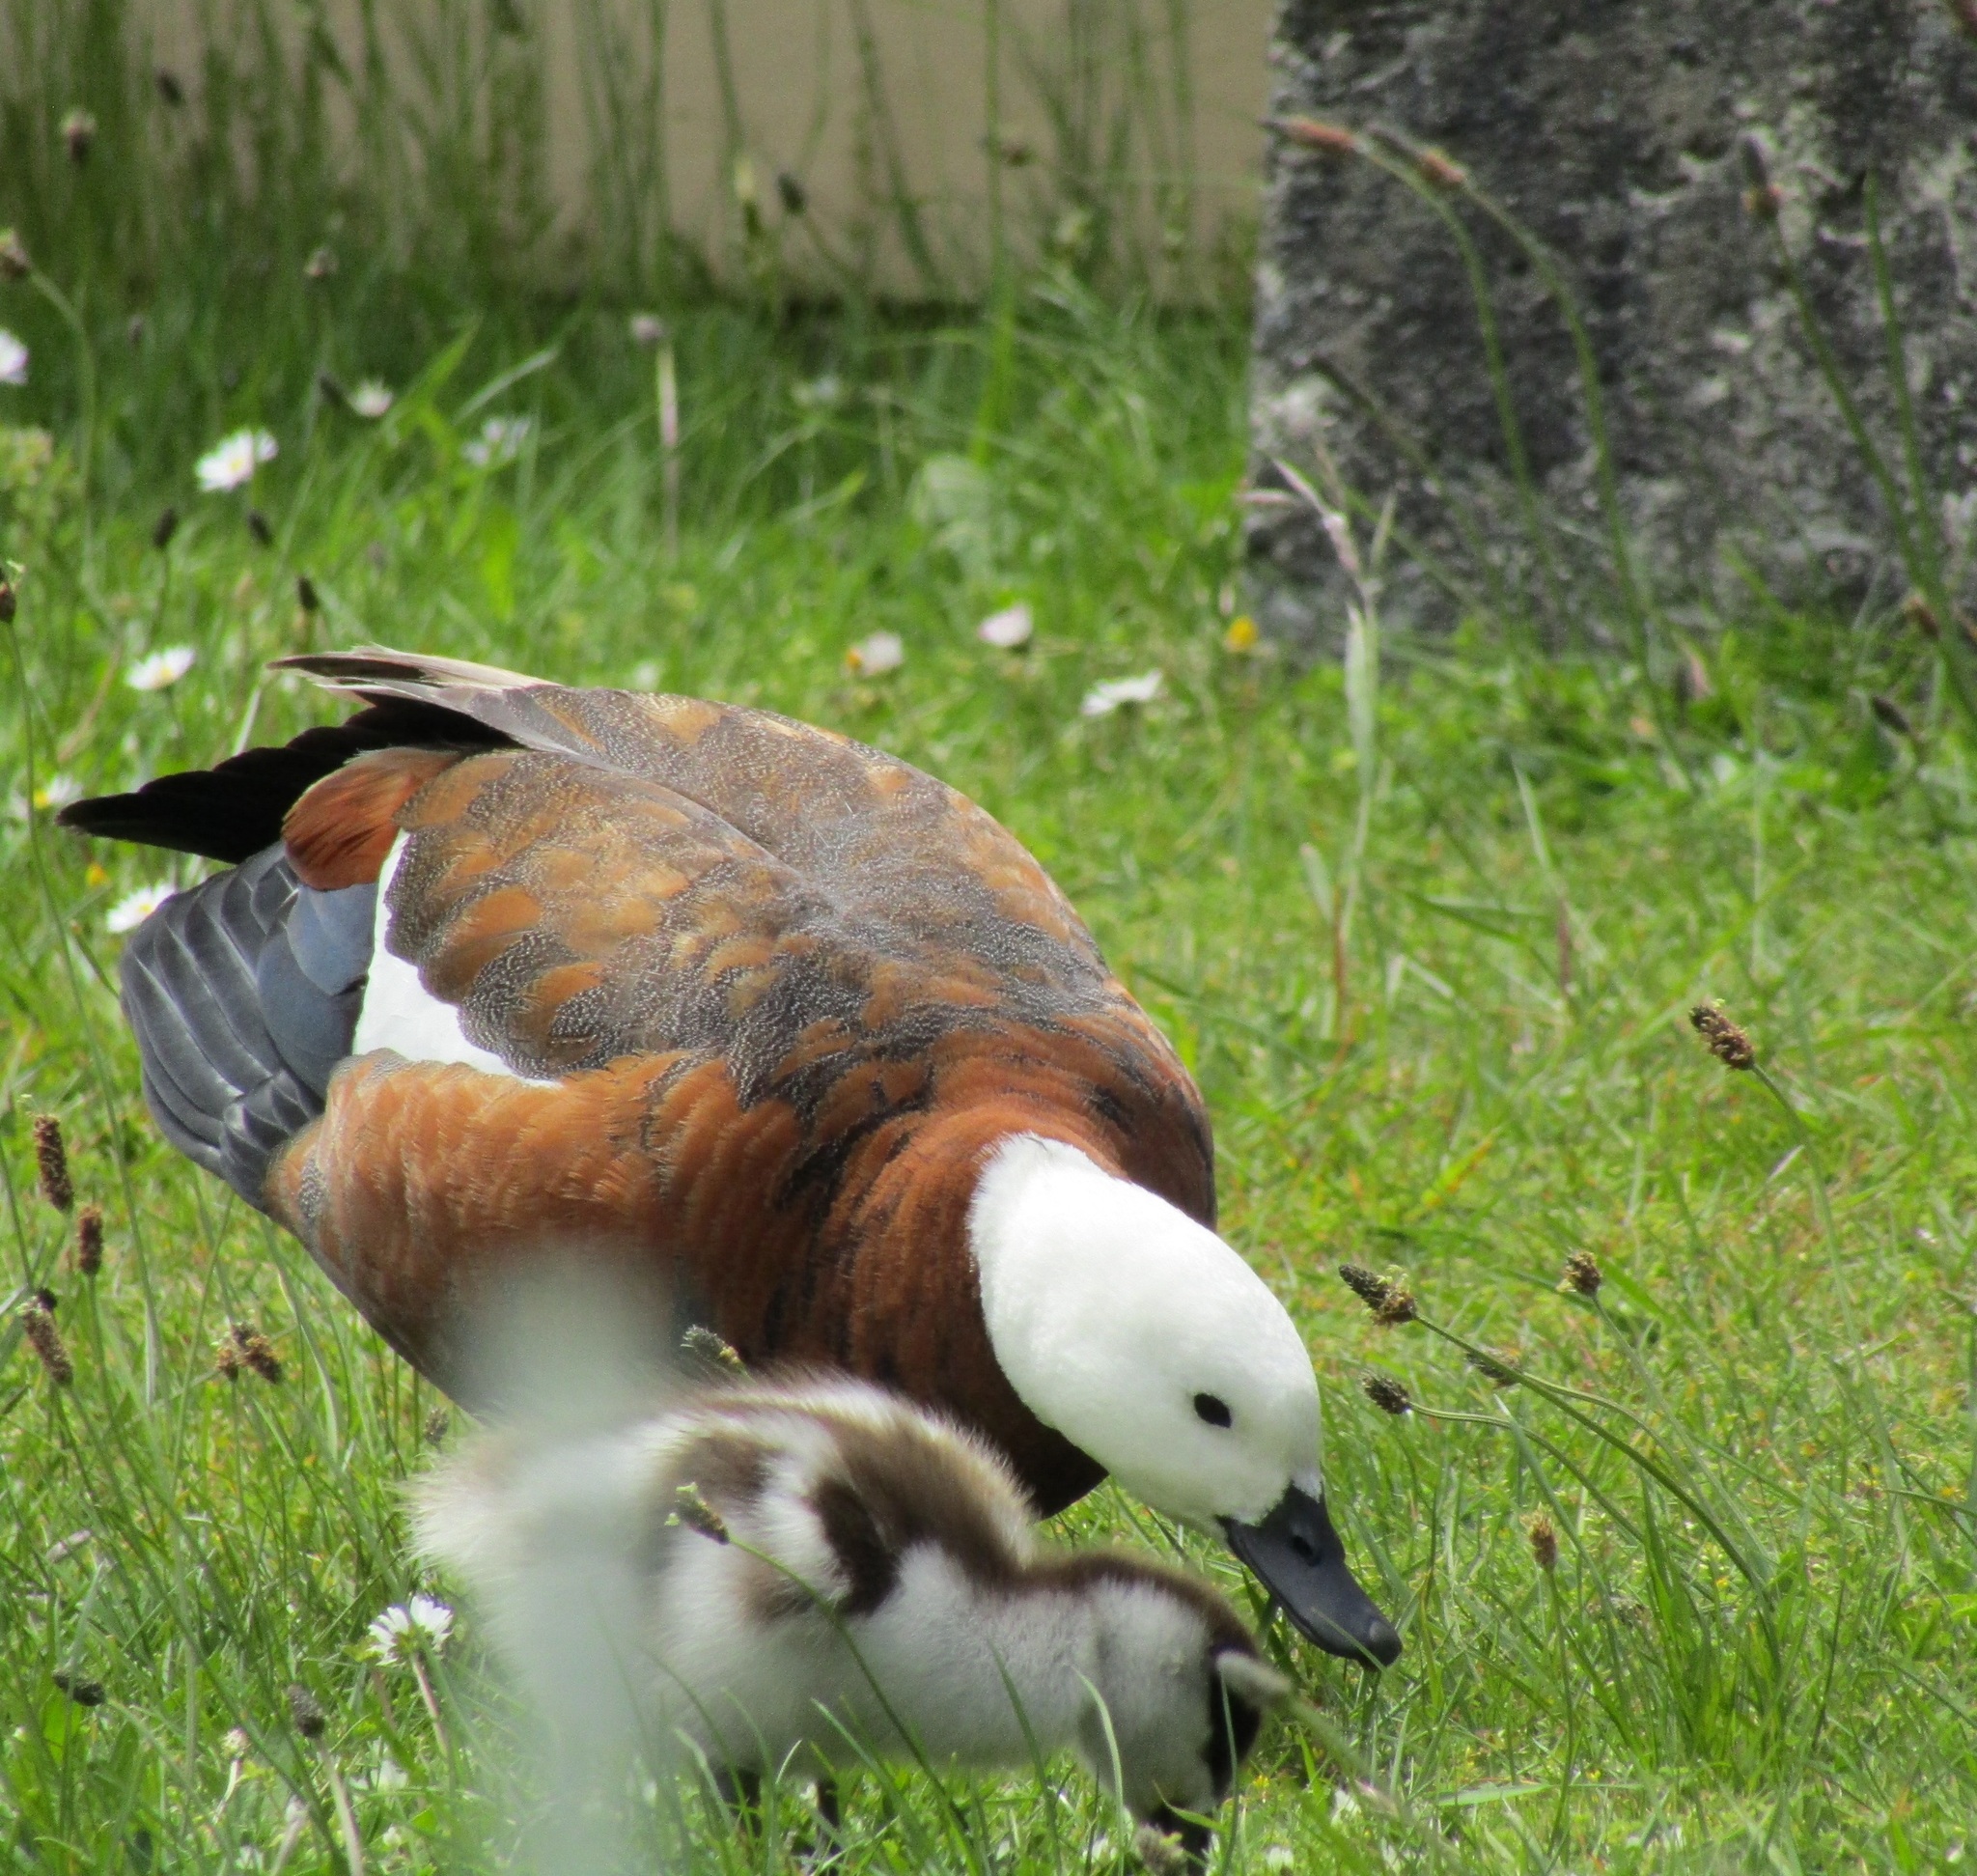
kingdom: Animalia
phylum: Chordata
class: Aves
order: Anseriformes
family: Anatidae
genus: Tadorna
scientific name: Tadorna variegata
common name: Paradise shelduck
